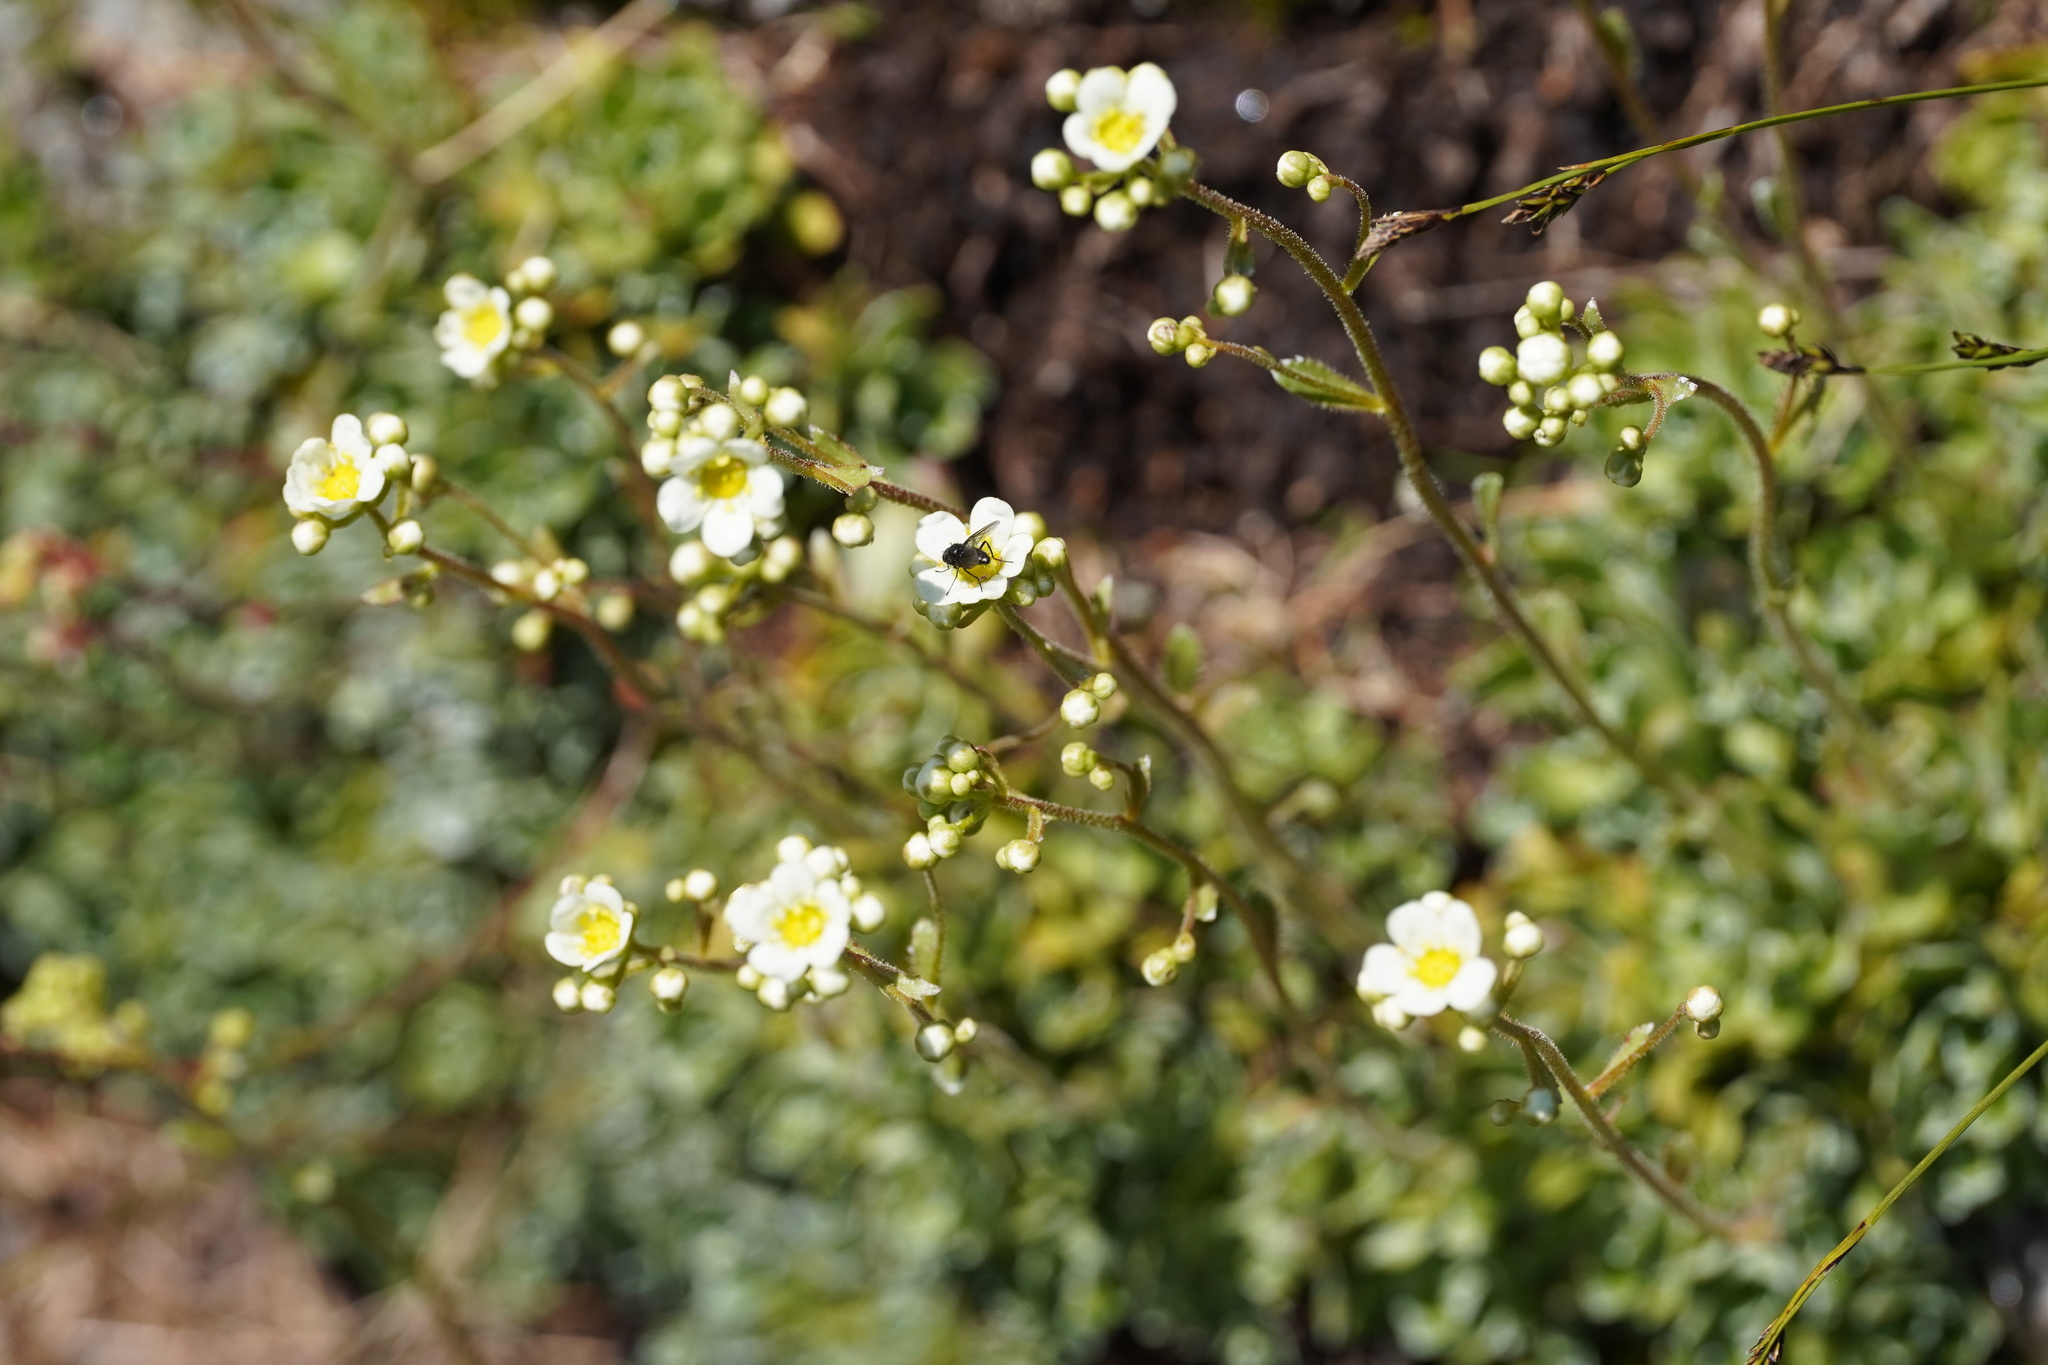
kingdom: Plantae
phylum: Tracheophyta
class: Magnoliopsida
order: Saxifragales
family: Saxifragaceae
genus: Saxifraga
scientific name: Saxifraga paniculata
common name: Livelong saxifrage
